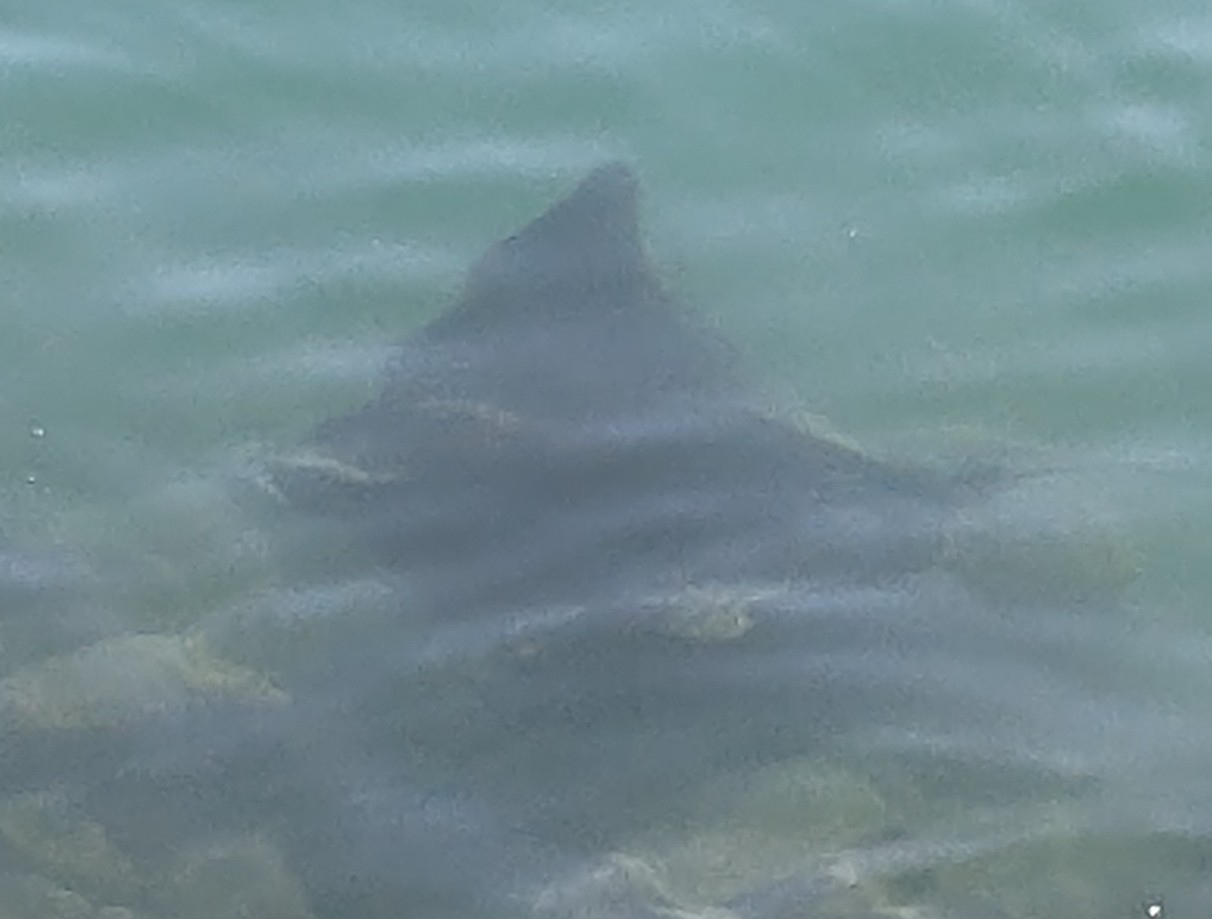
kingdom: Animalia
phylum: Chordata
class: Elasmobranchii
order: Myliobatiformes
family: Myliobatidae
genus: Myliobatis
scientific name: Myliobatis tenuicaudatus
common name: Eagle ray
